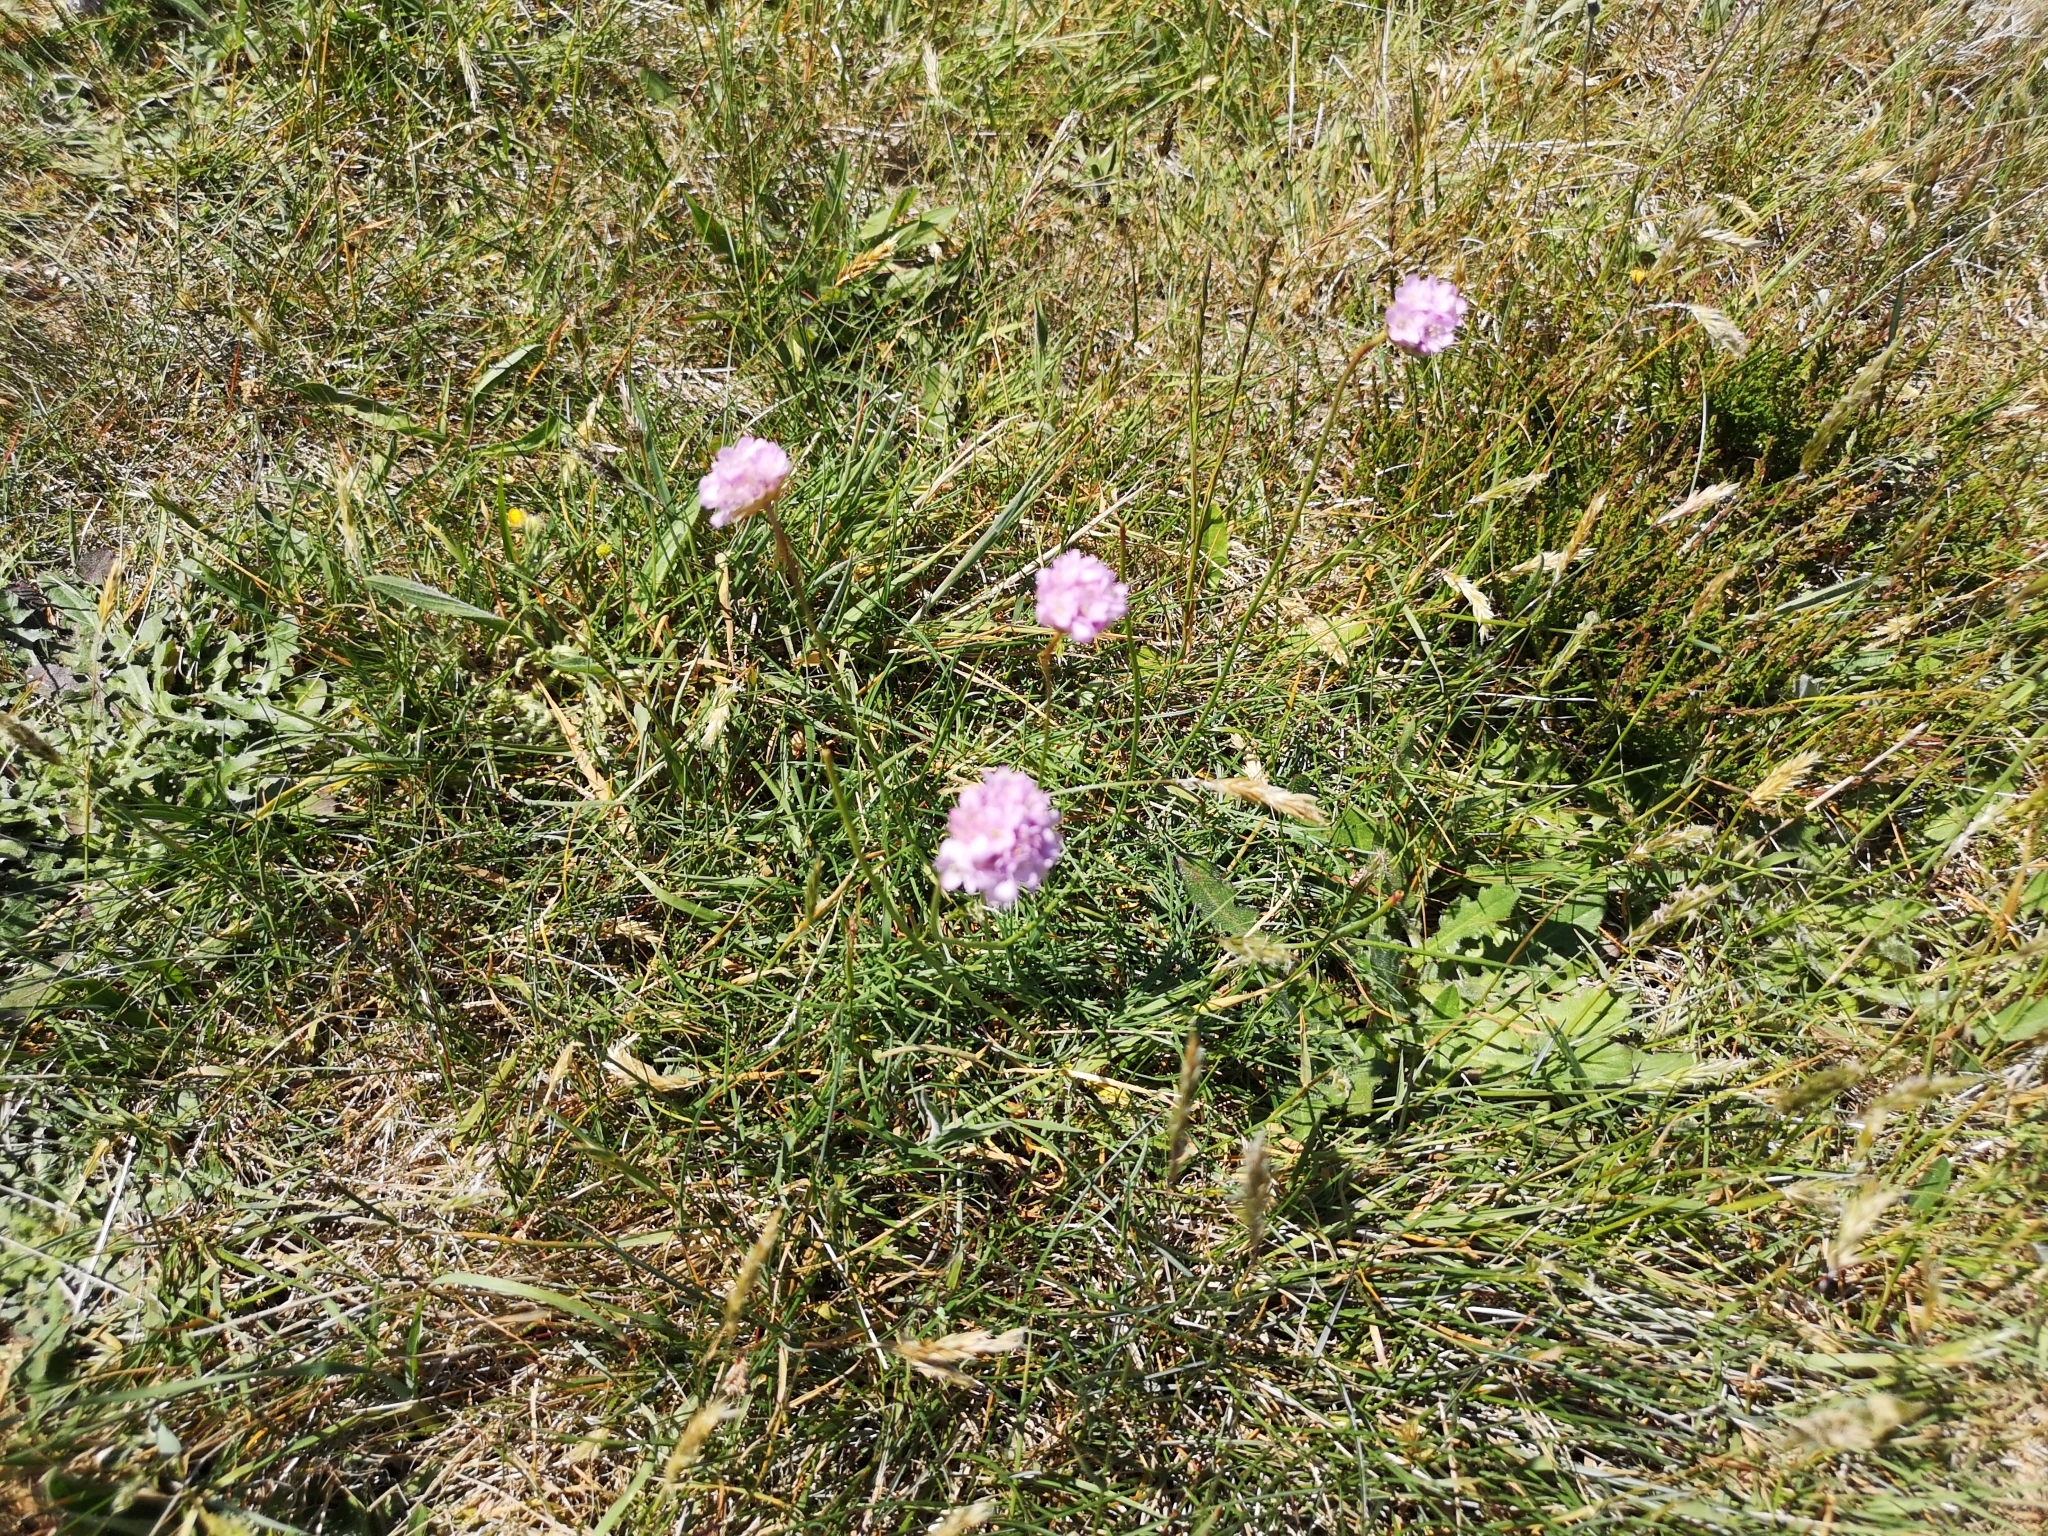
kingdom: Plantae
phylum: Tracheophyta
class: Magnoliopsida
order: Caryophyllales
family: Plumbaginaceae
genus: Armeria
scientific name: Armeria maritima
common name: Thrift
